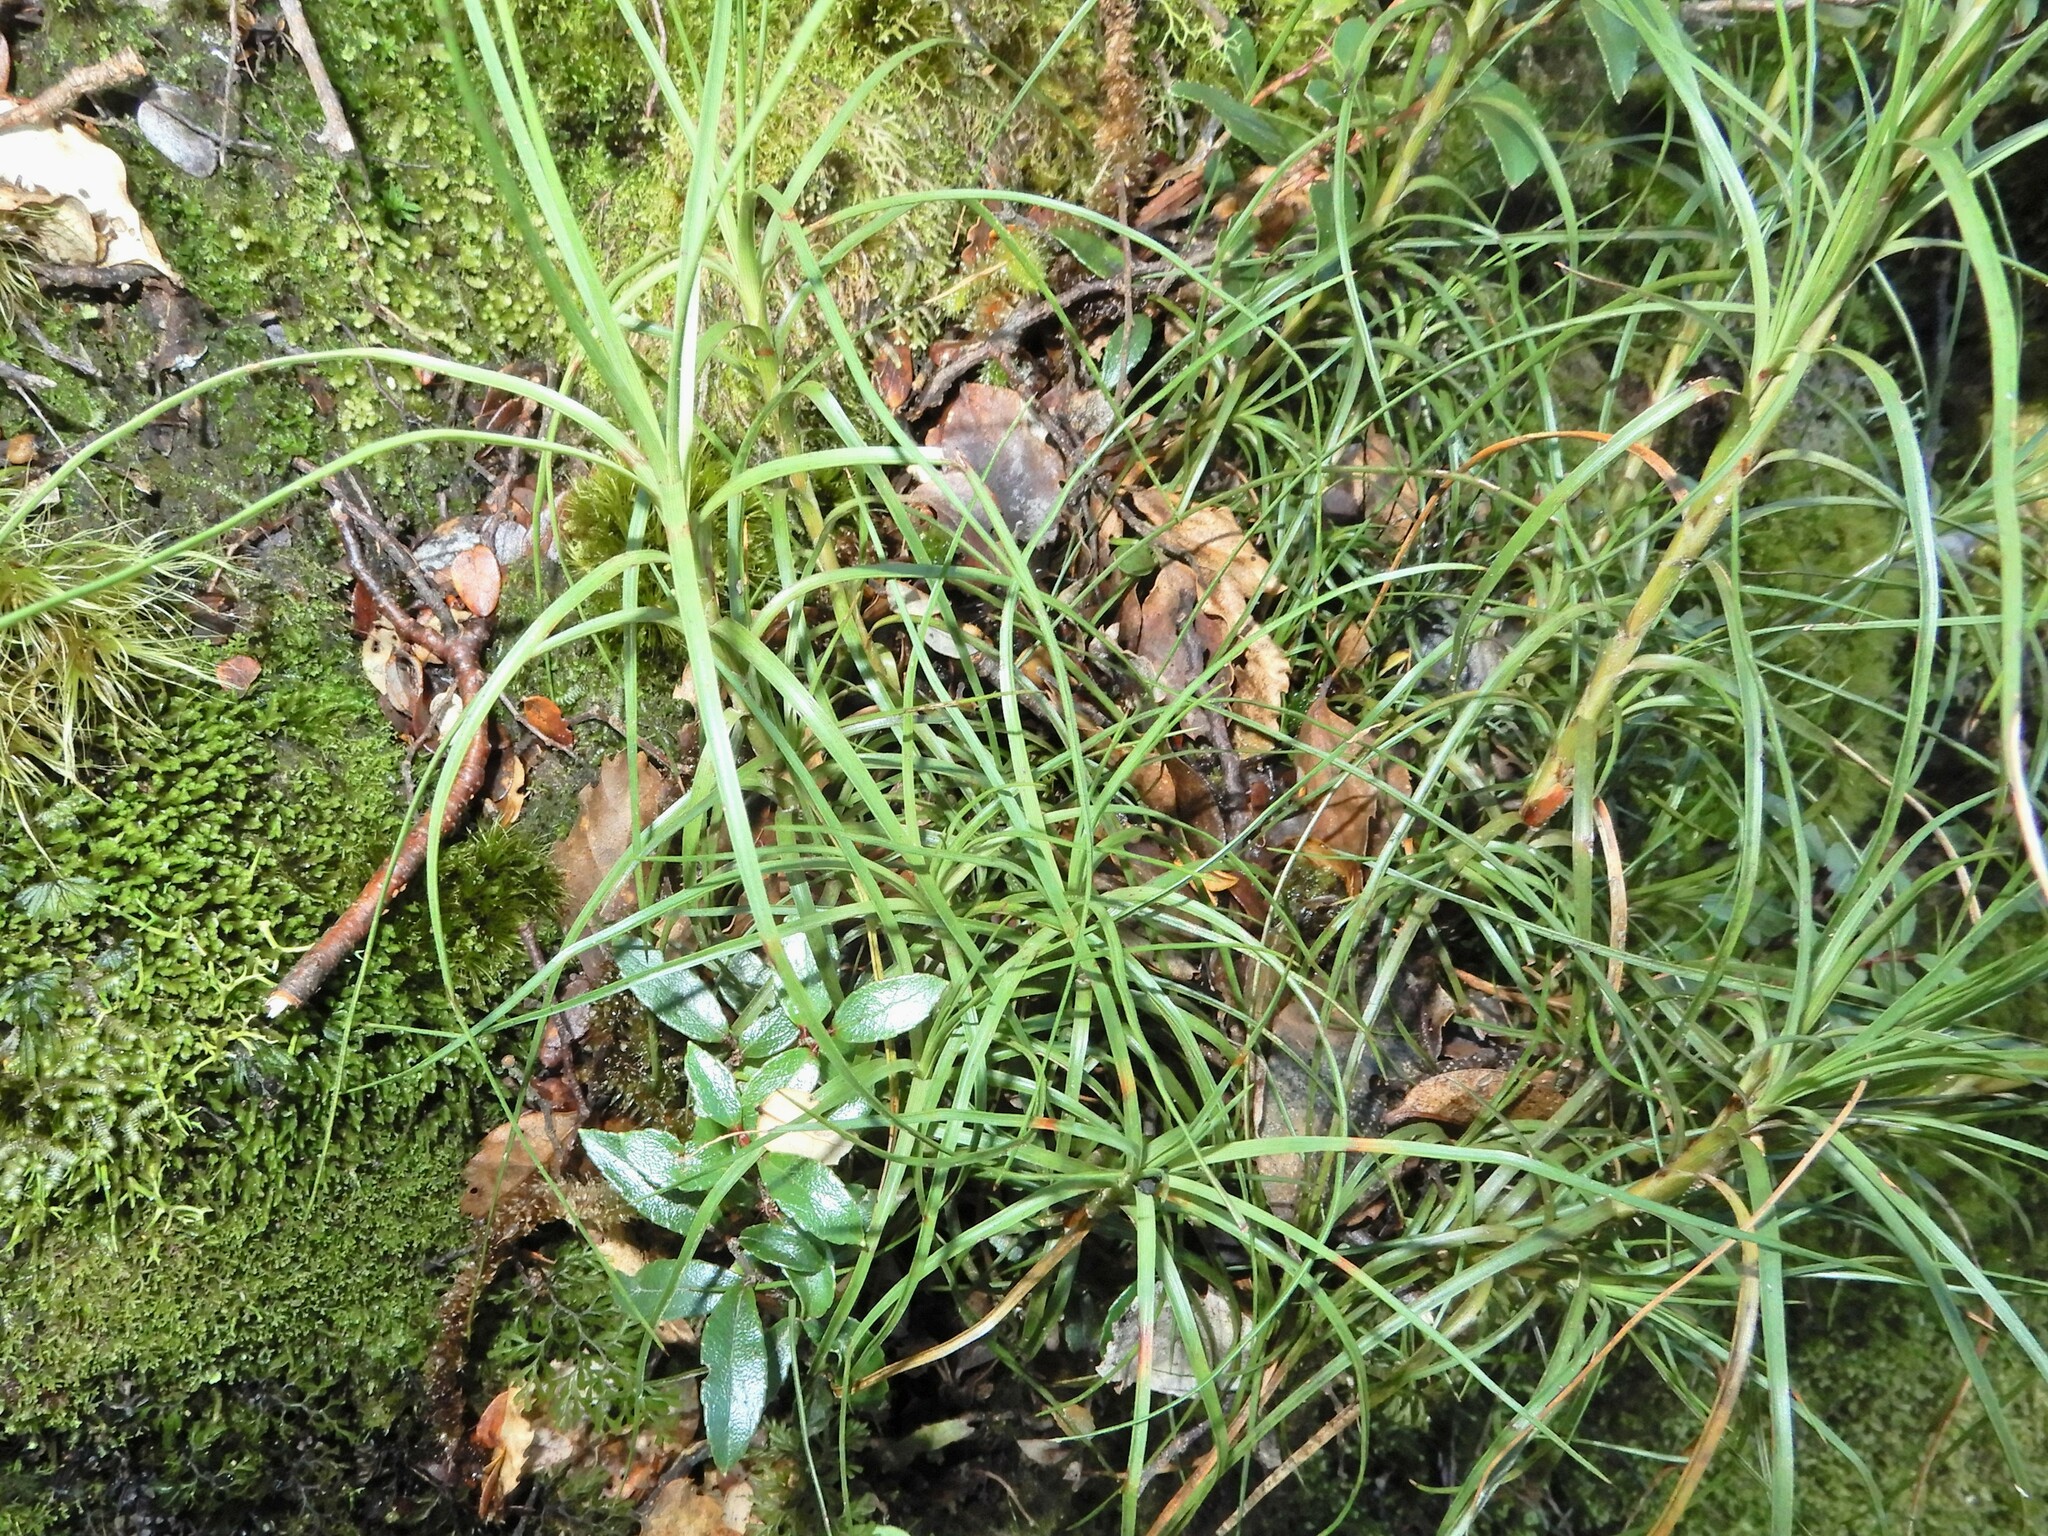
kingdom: Plantae
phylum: Tracheophyta
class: Magnoliopsida
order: Ericales
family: Ericaceae
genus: Dracophyllum
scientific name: Dracophyllum filifolium
